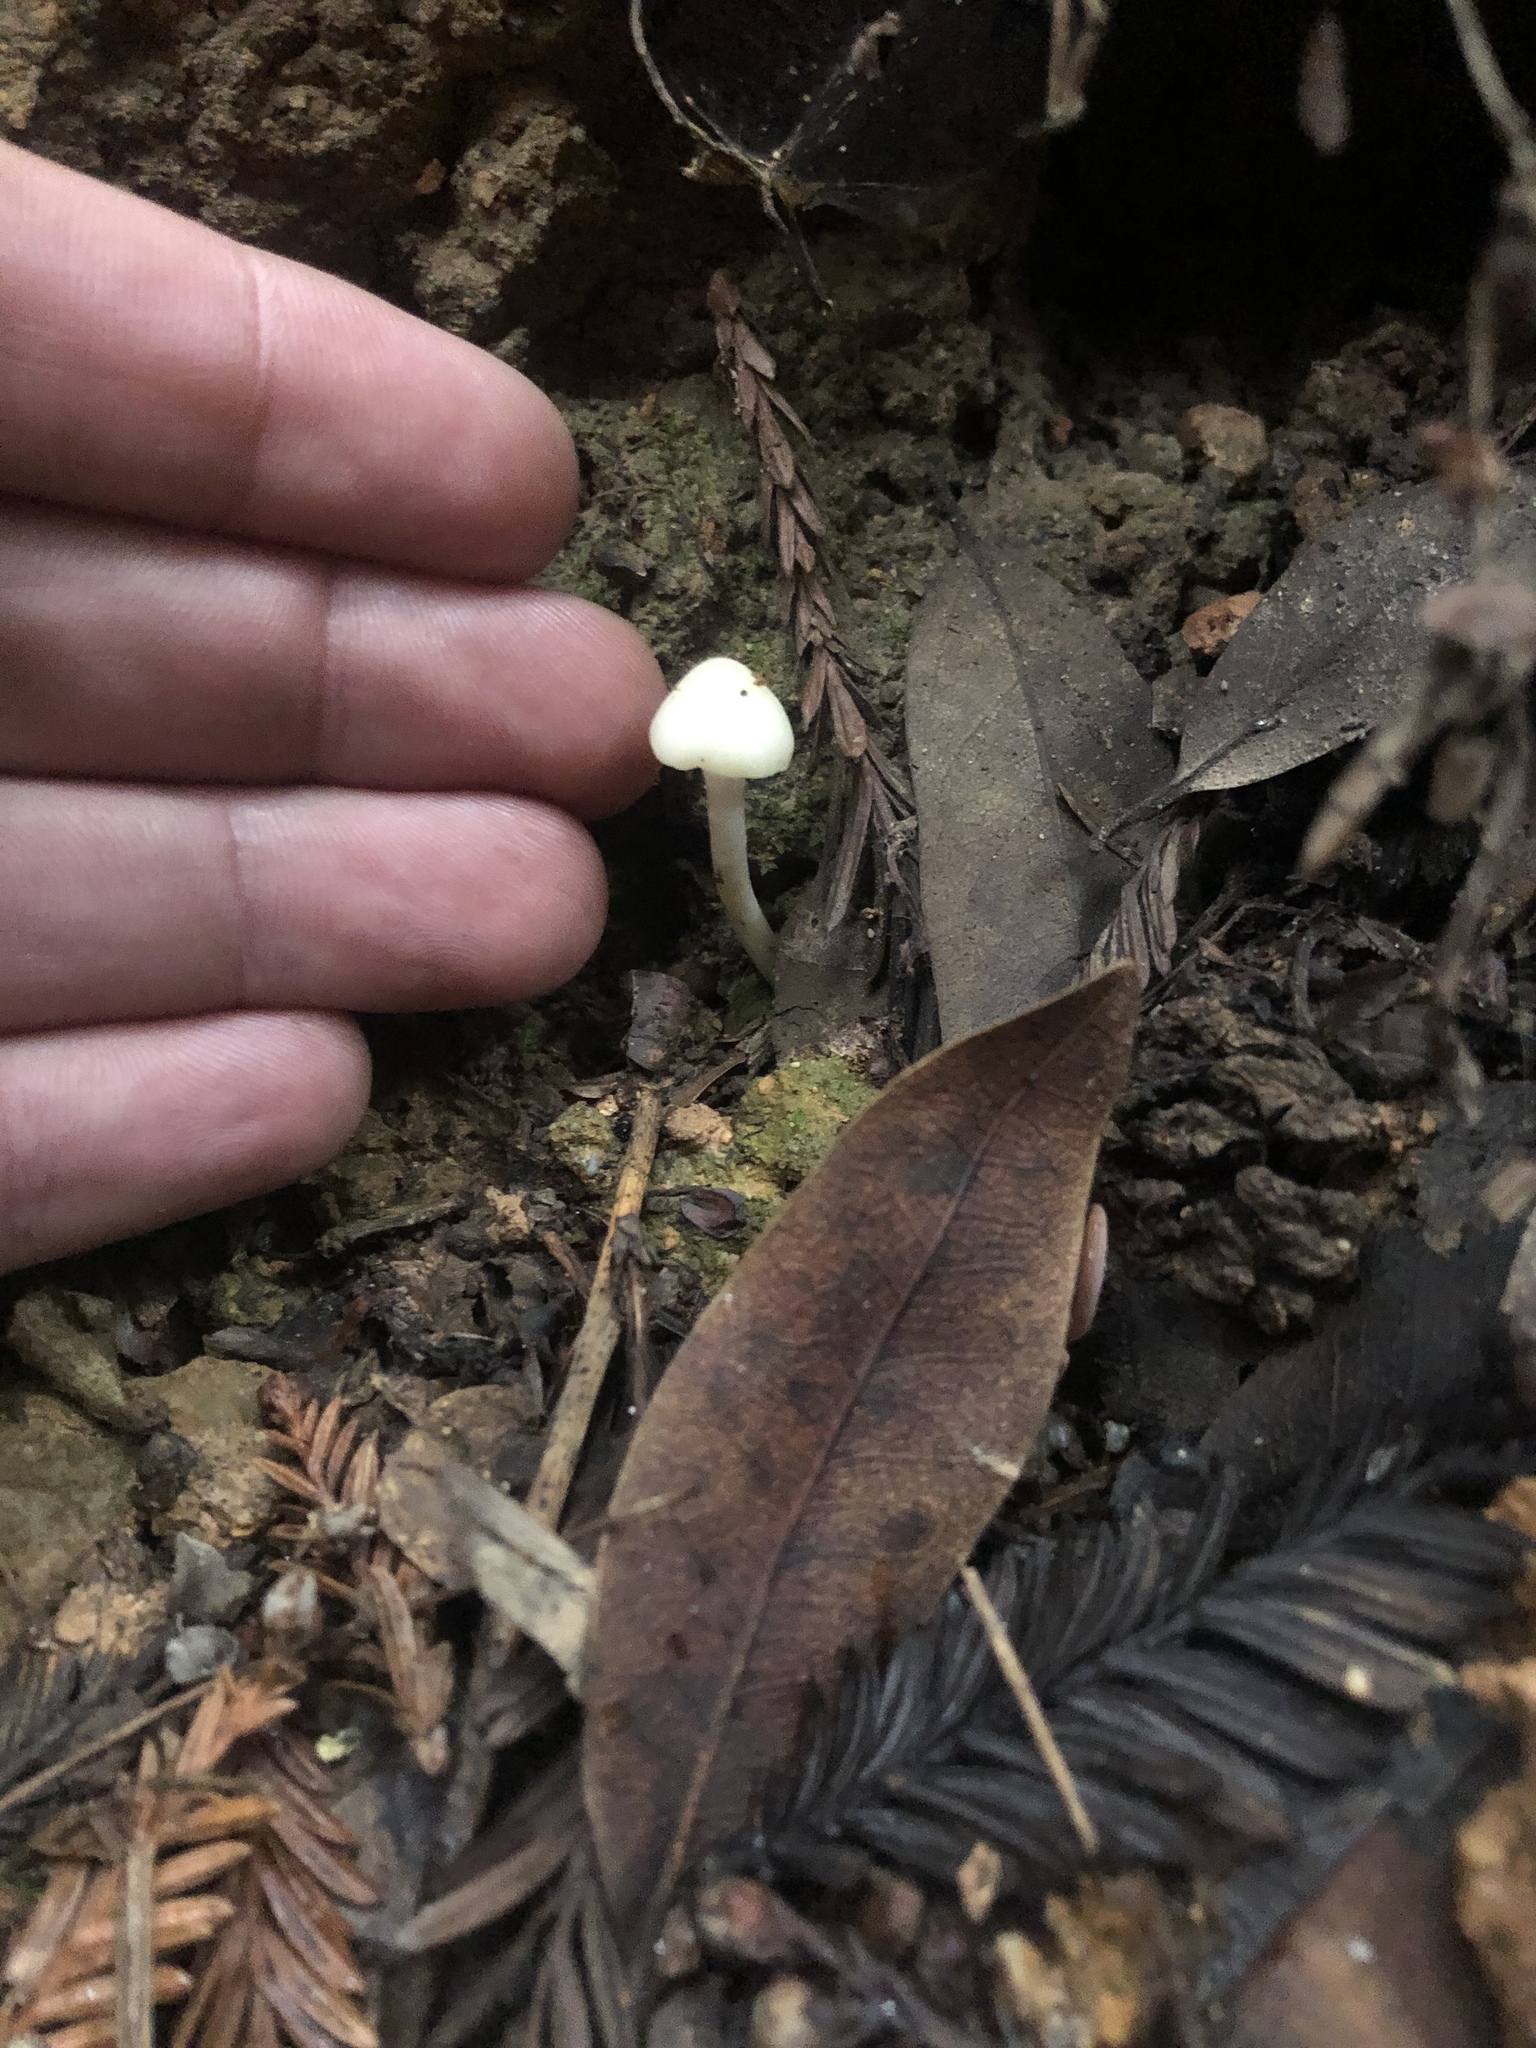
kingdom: Fungi
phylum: Basidiomycota
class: Agaricomycetes
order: Agaricales
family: Hygrophoraceae
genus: Cuphophyllus
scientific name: Cuphophyllus russocoriaceus
